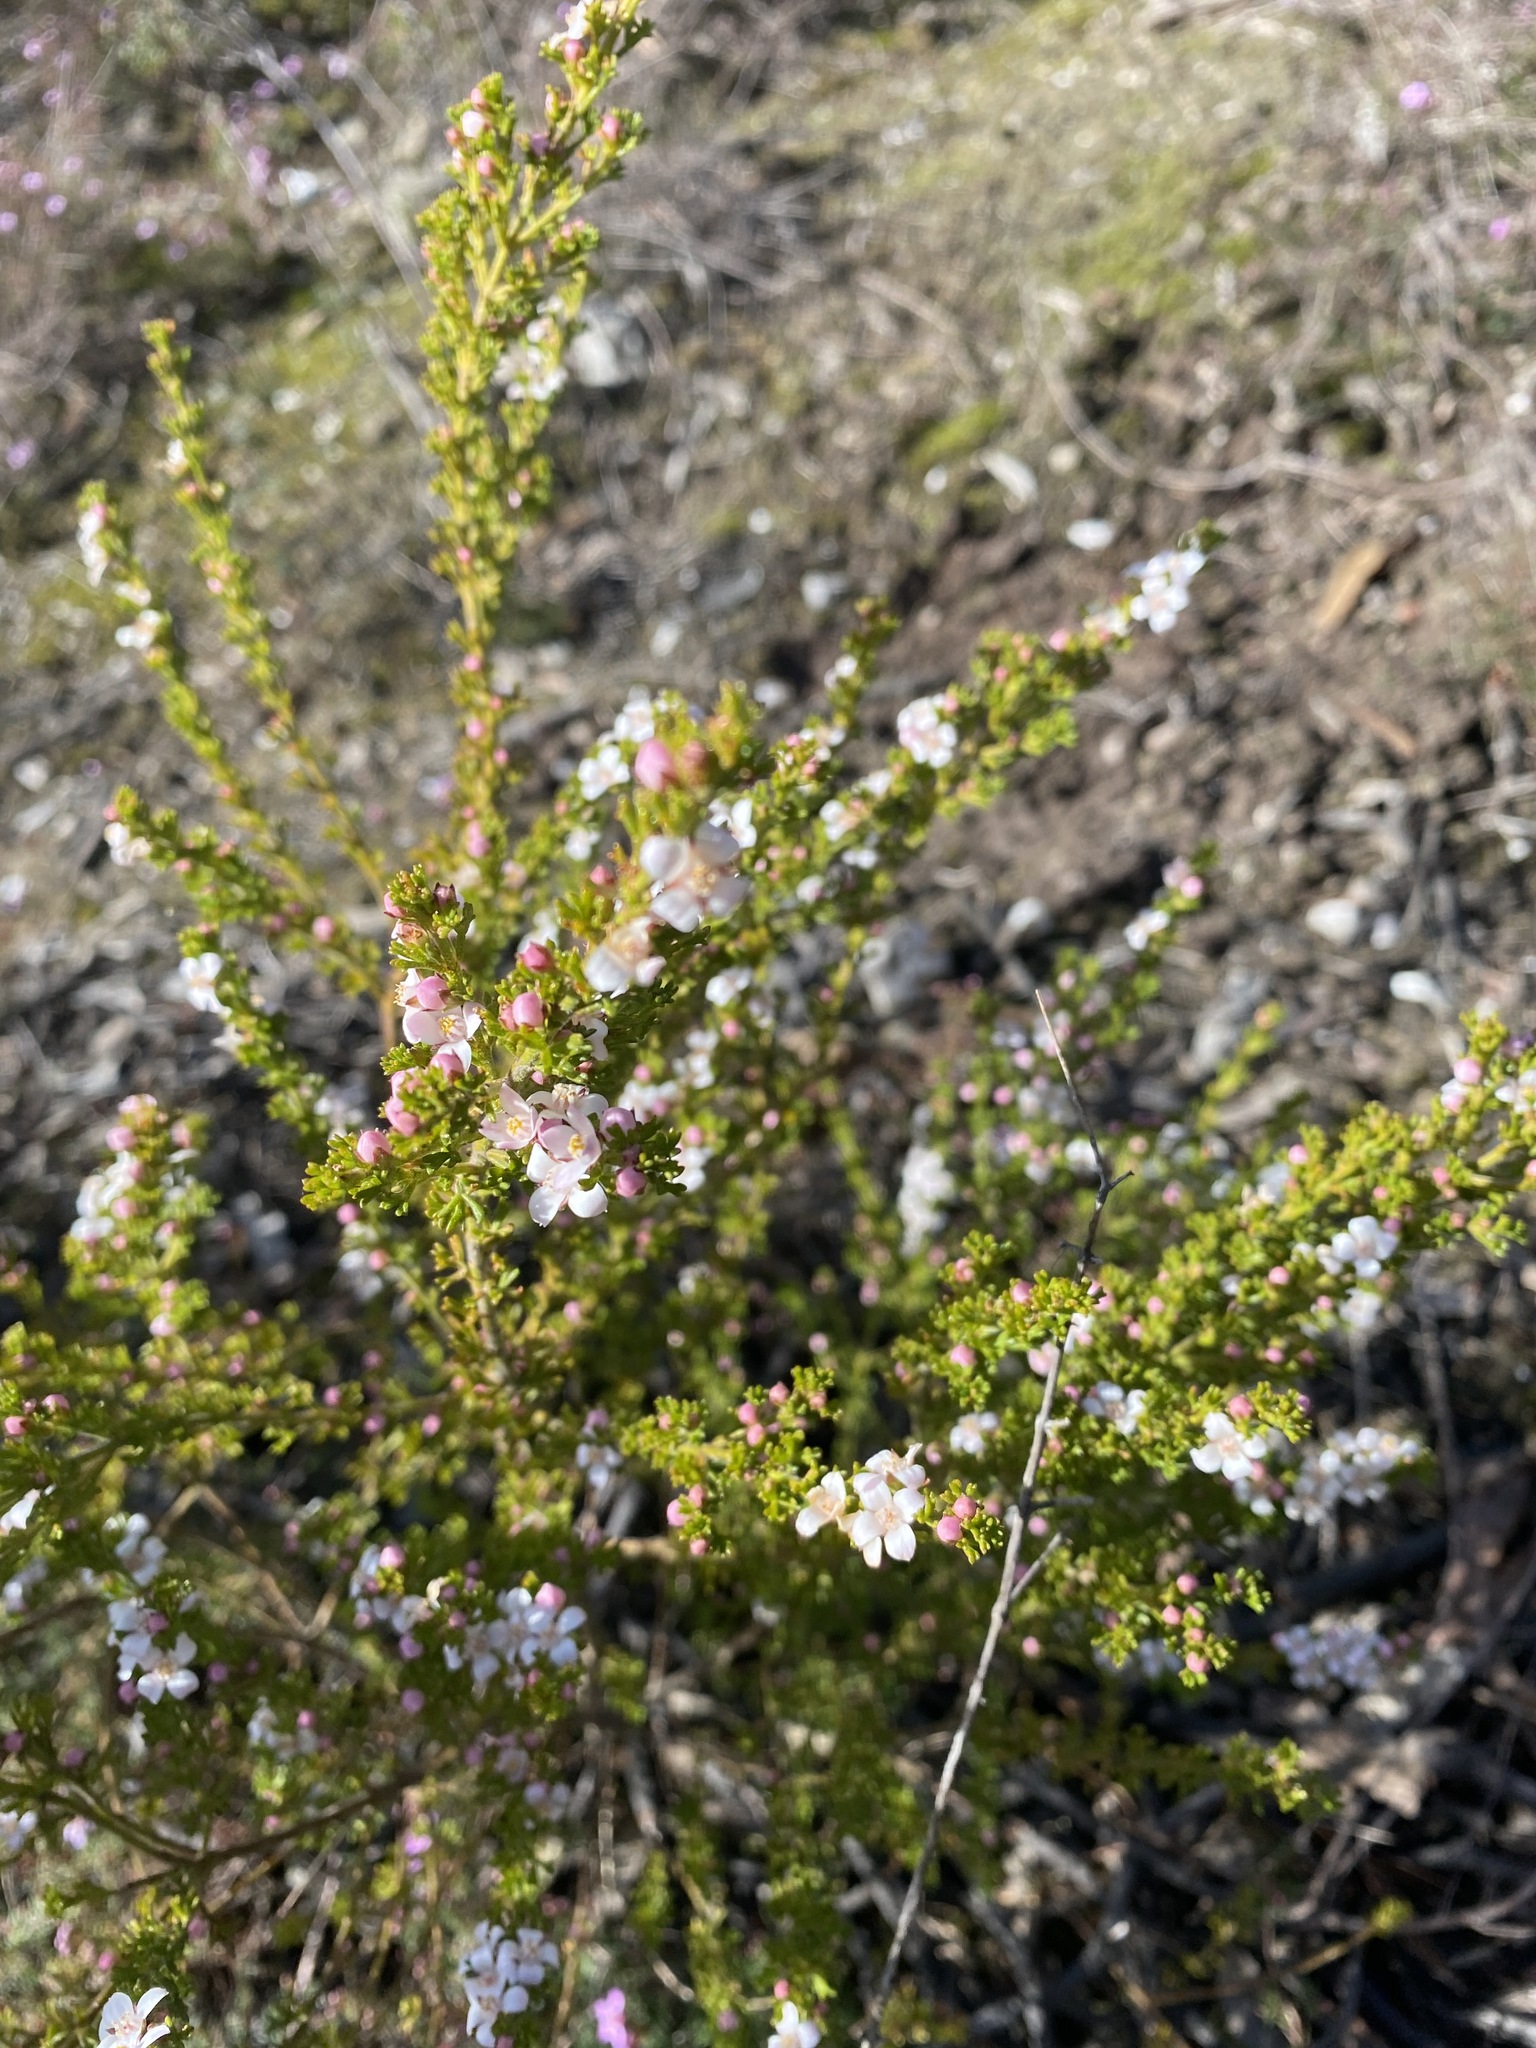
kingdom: Plantae
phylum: Tracheophyta
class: Magnoliopsida
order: Sapindales
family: Rutaceae
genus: Cyanothamnus
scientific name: Cyanothamnus anemonifolius
